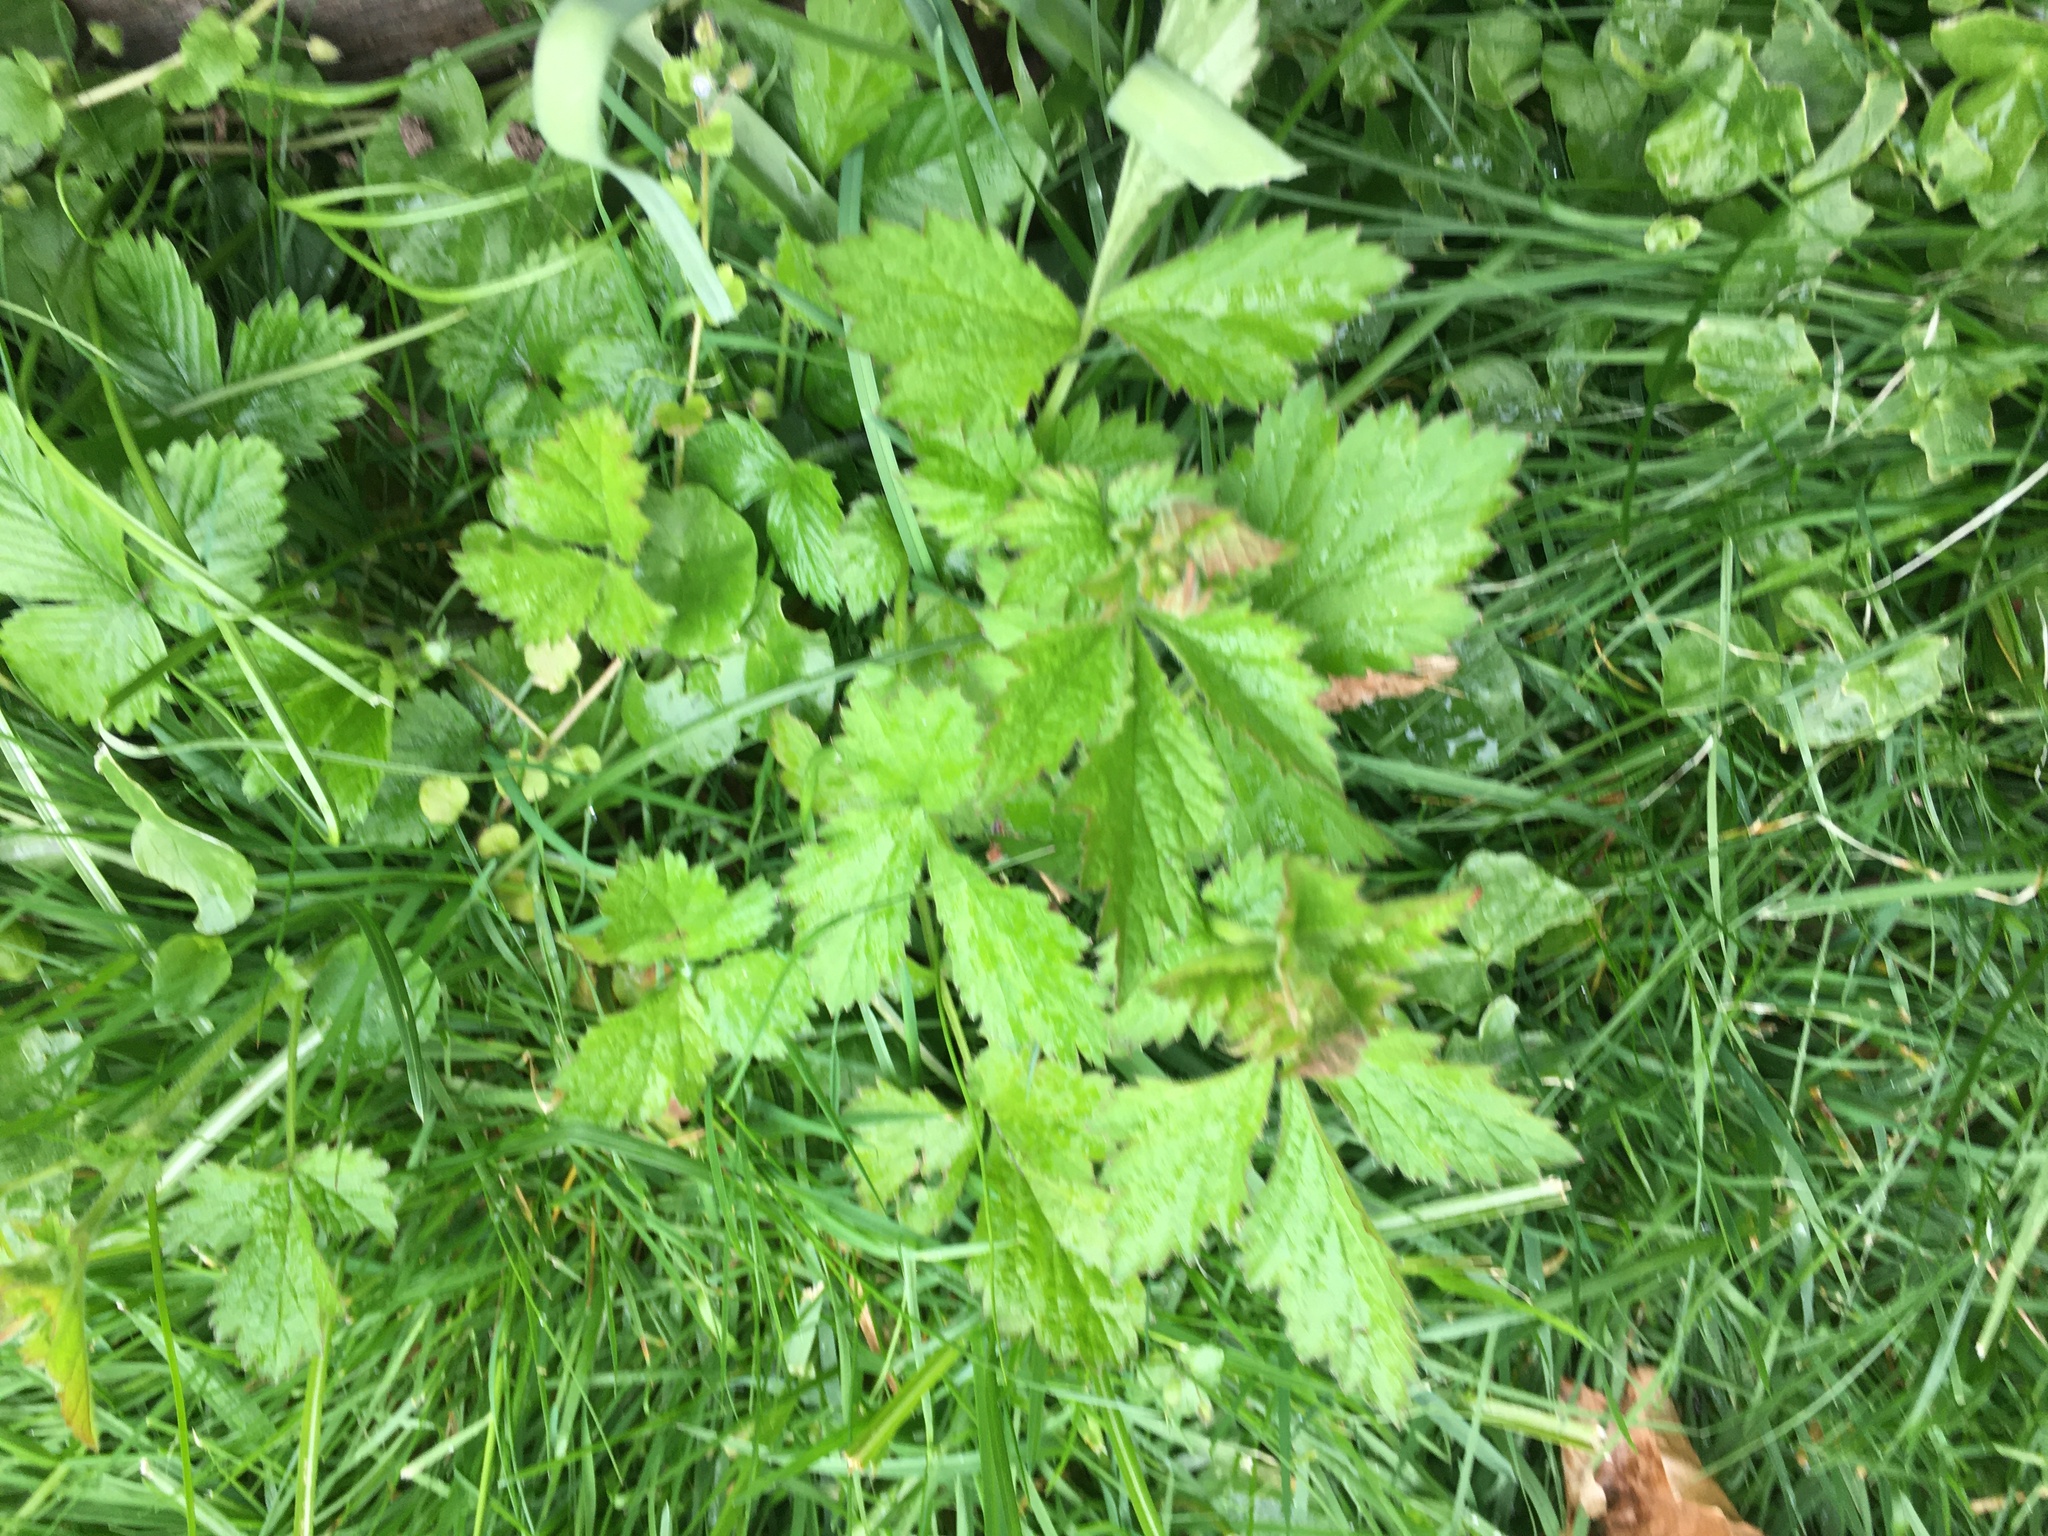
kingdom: Plantae
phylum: Tracheophyta
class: Magnoliopsida
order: Rosales
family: Rosaceae
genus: Geum
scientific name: Geum urbanum
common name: Wood avens
